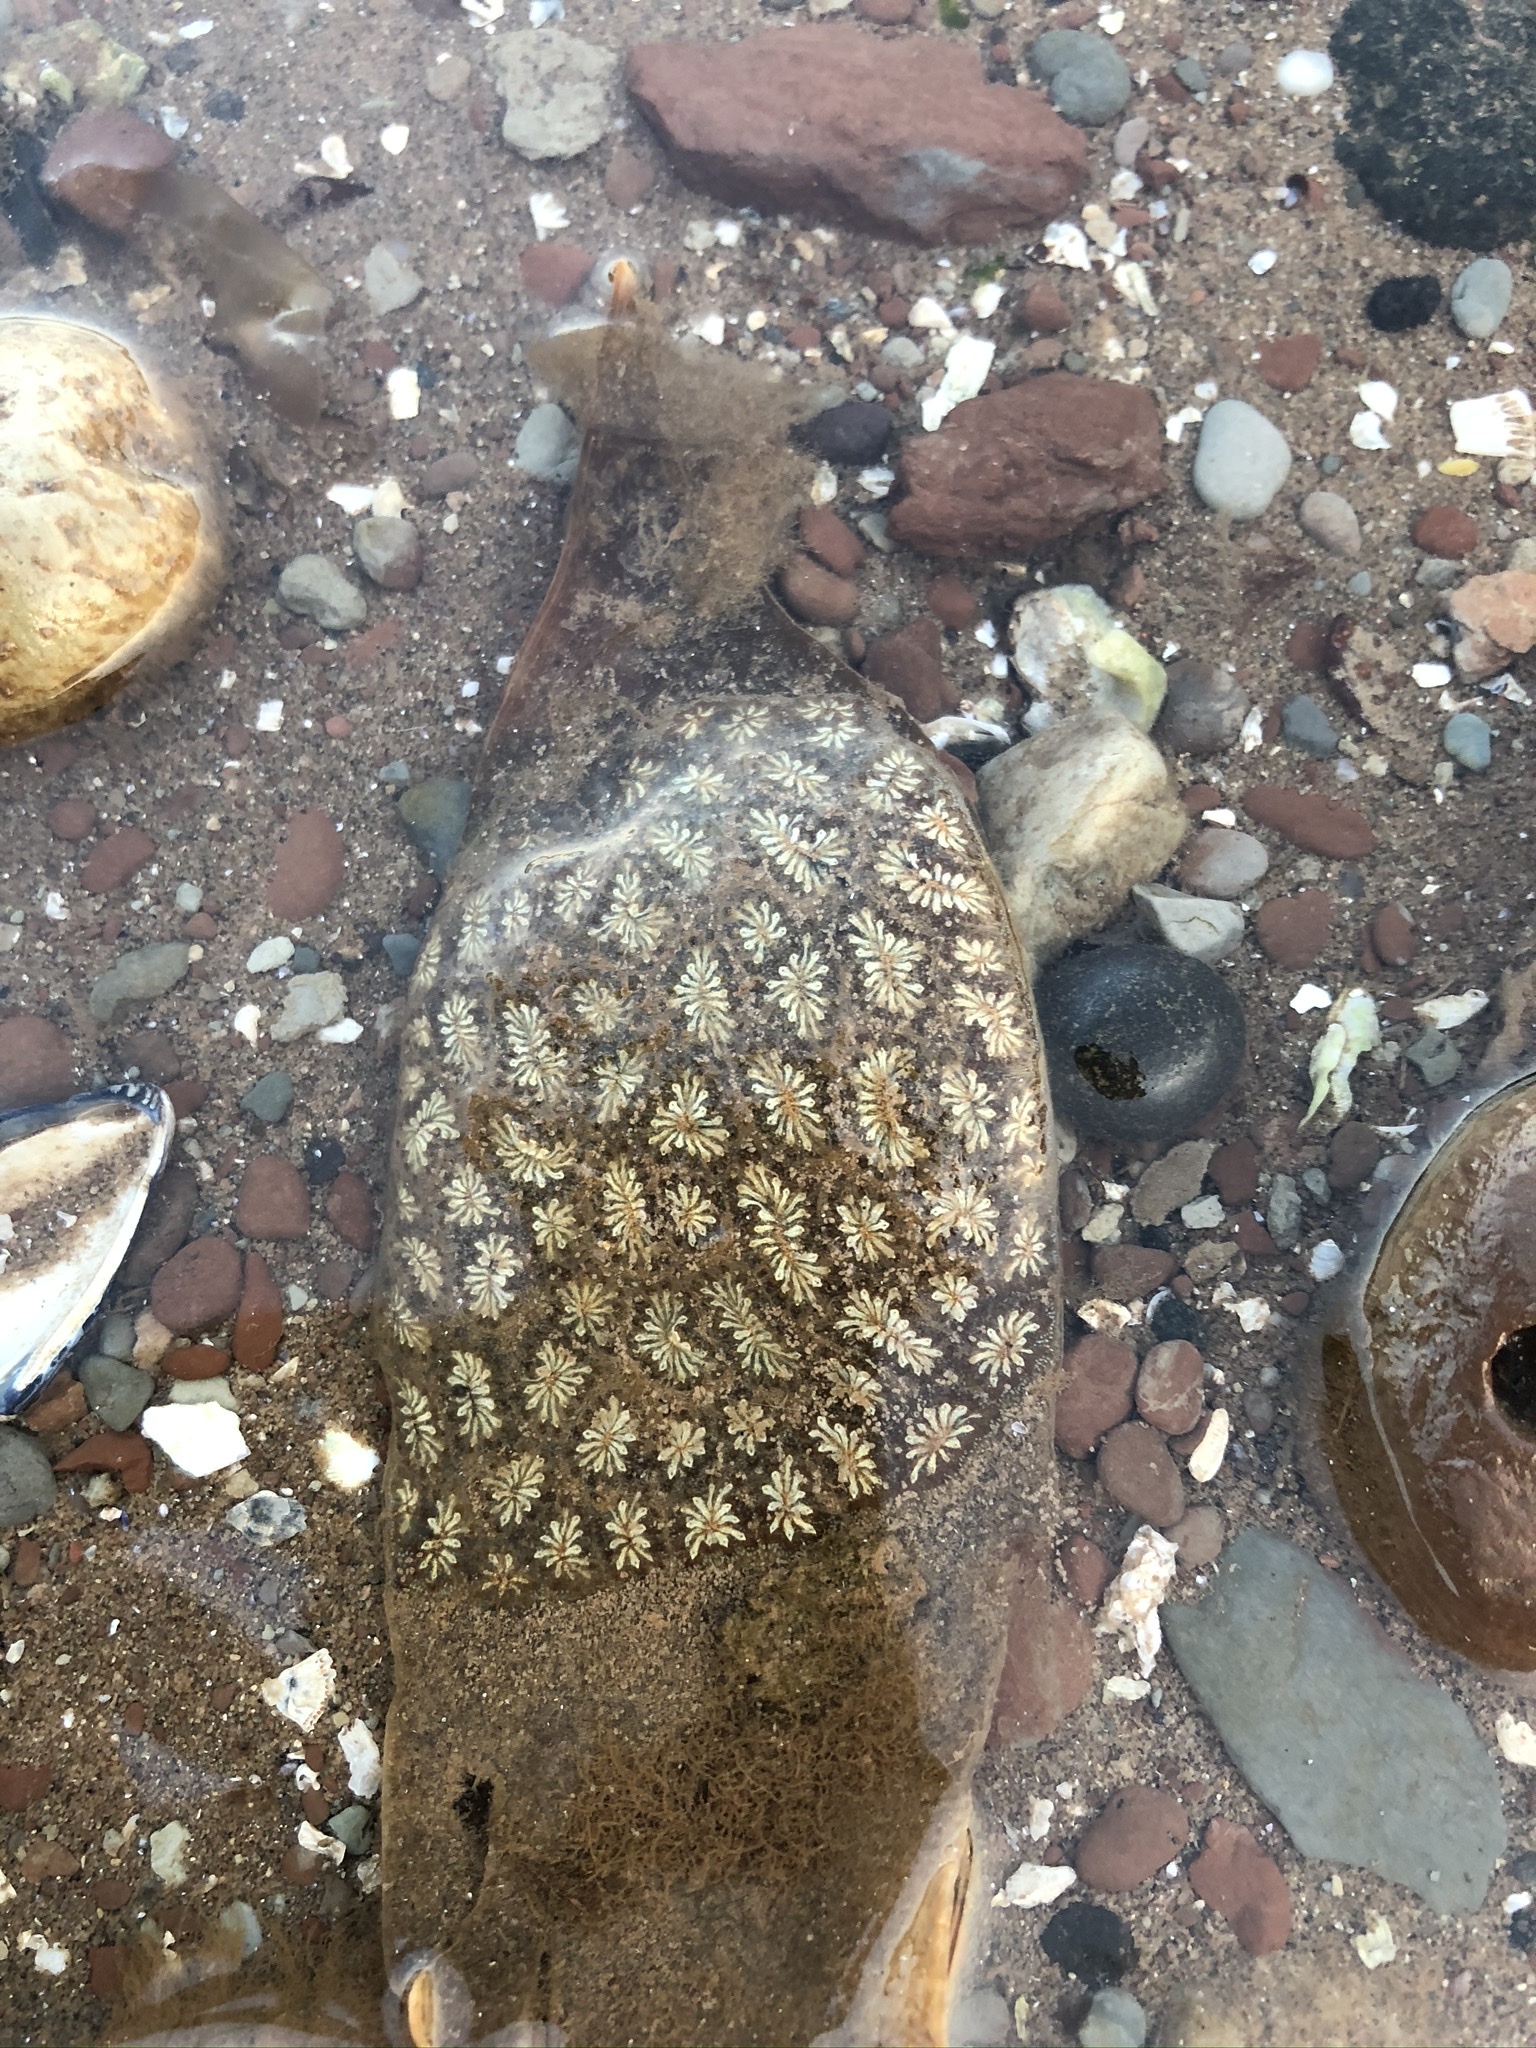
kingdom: Animalia
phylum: Chordata
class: Ascidiacea
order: Stolidobranchia
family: Styelidae
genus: Botryllus
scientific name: Botryllus schlosseri
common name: Golden star tunicate
